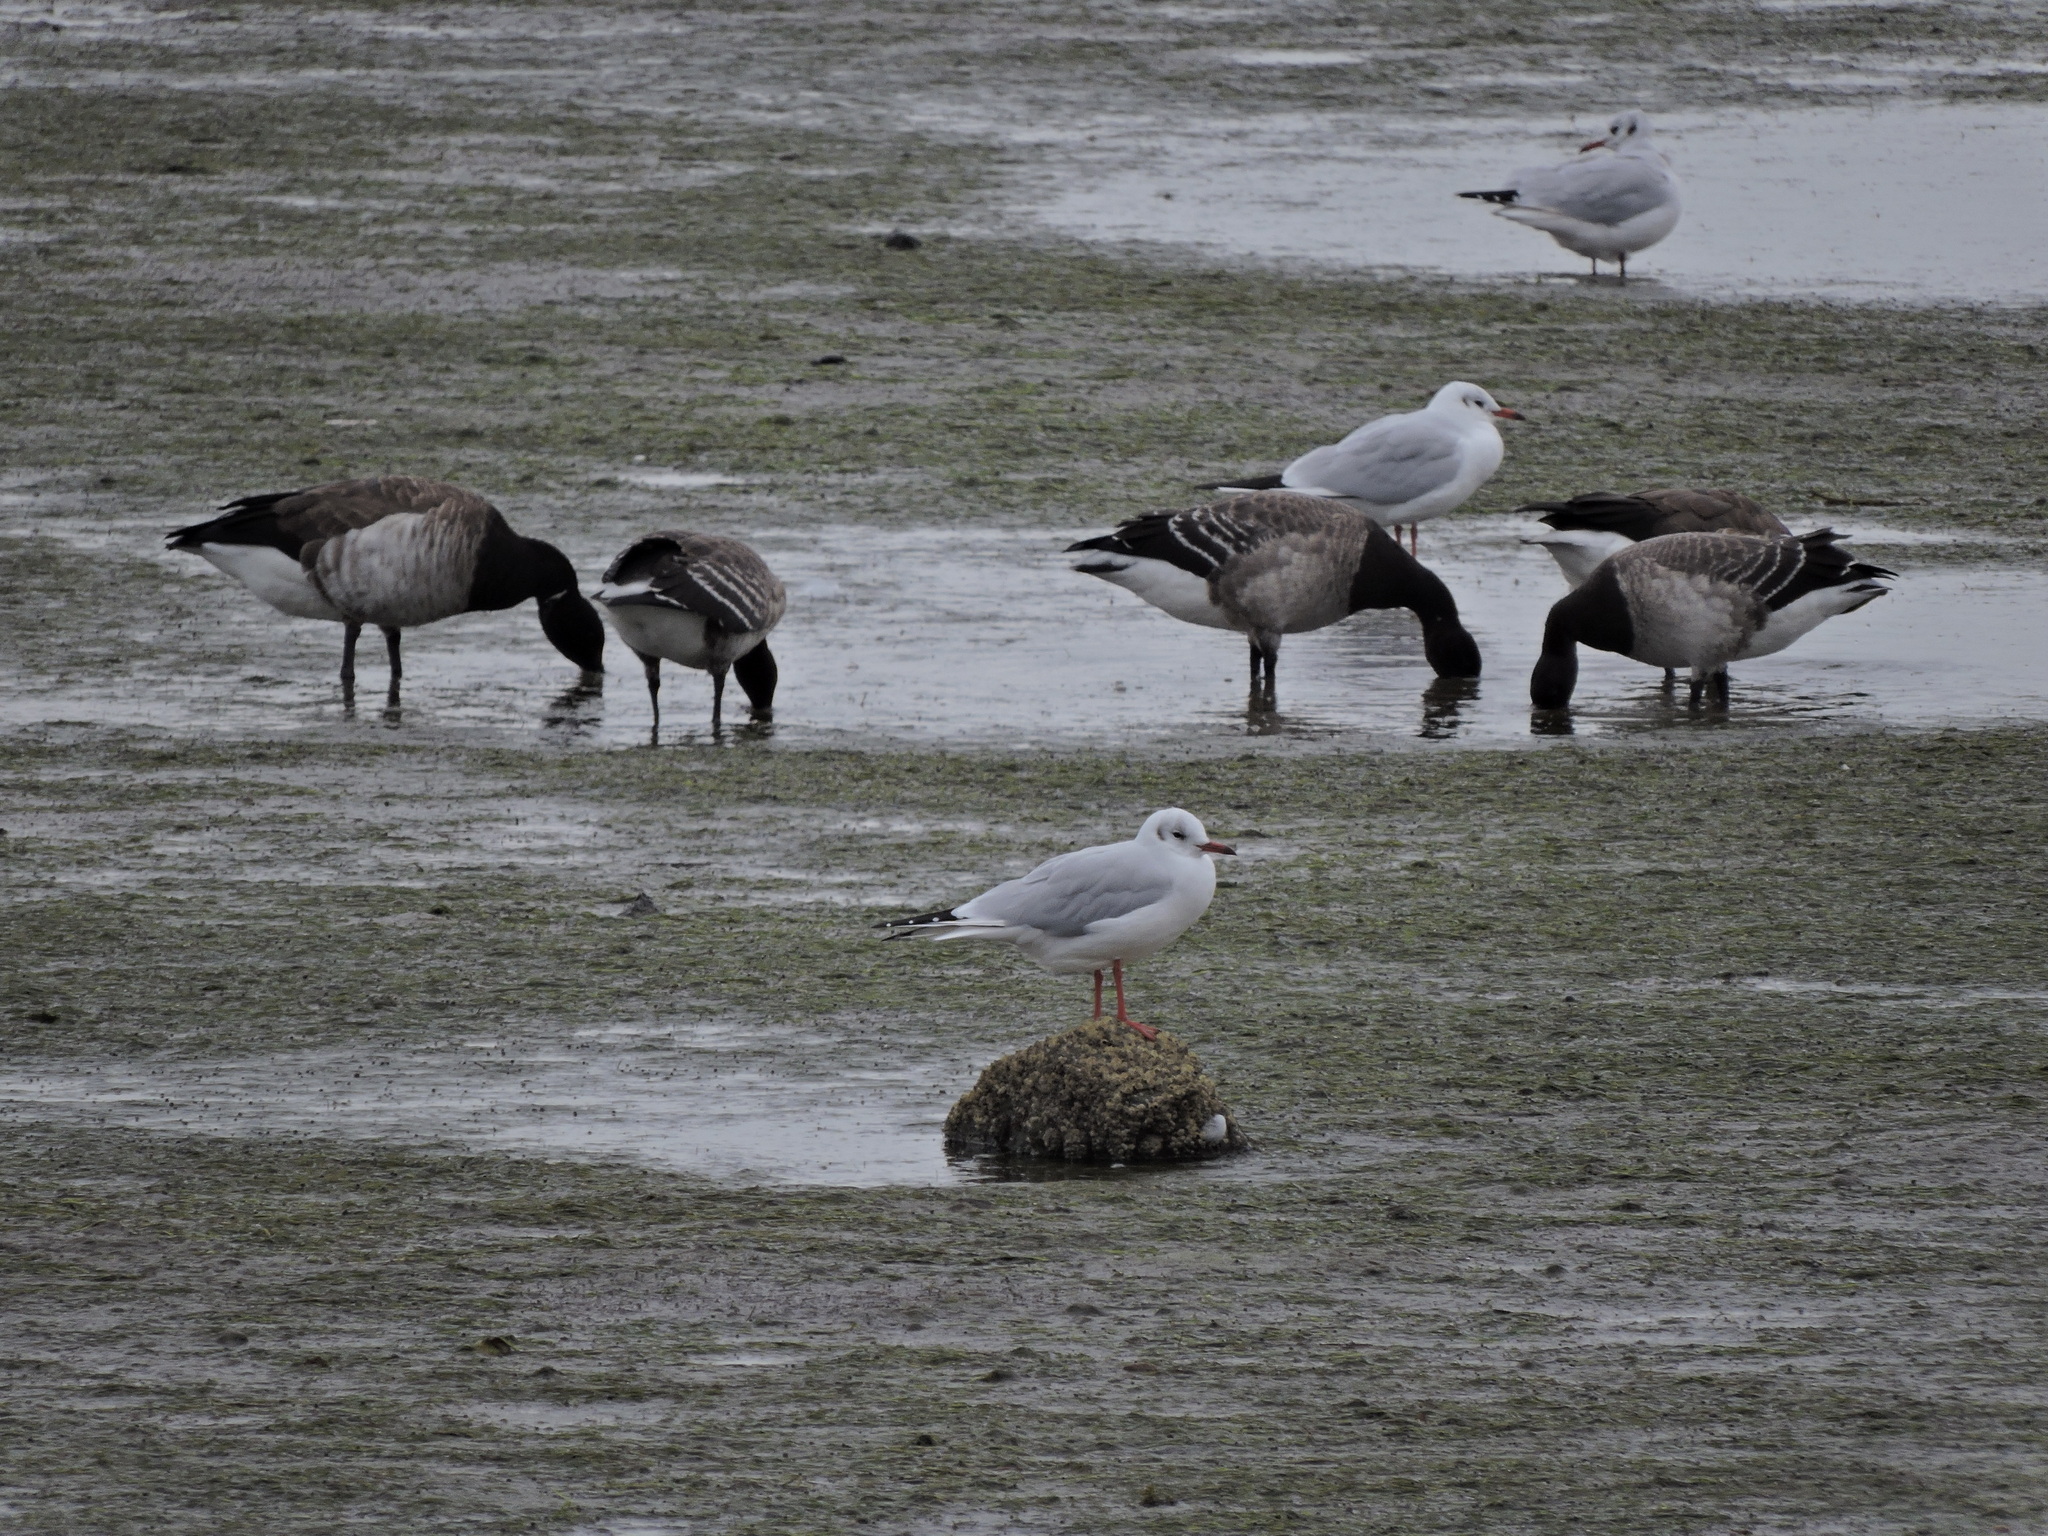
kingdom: Animalia
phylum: Chordata
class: Aves
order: Charadriiformes
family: Laridae
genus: Chroicocephalus
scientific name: Chroicocephalus ridibundus
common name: Black-headed gull
